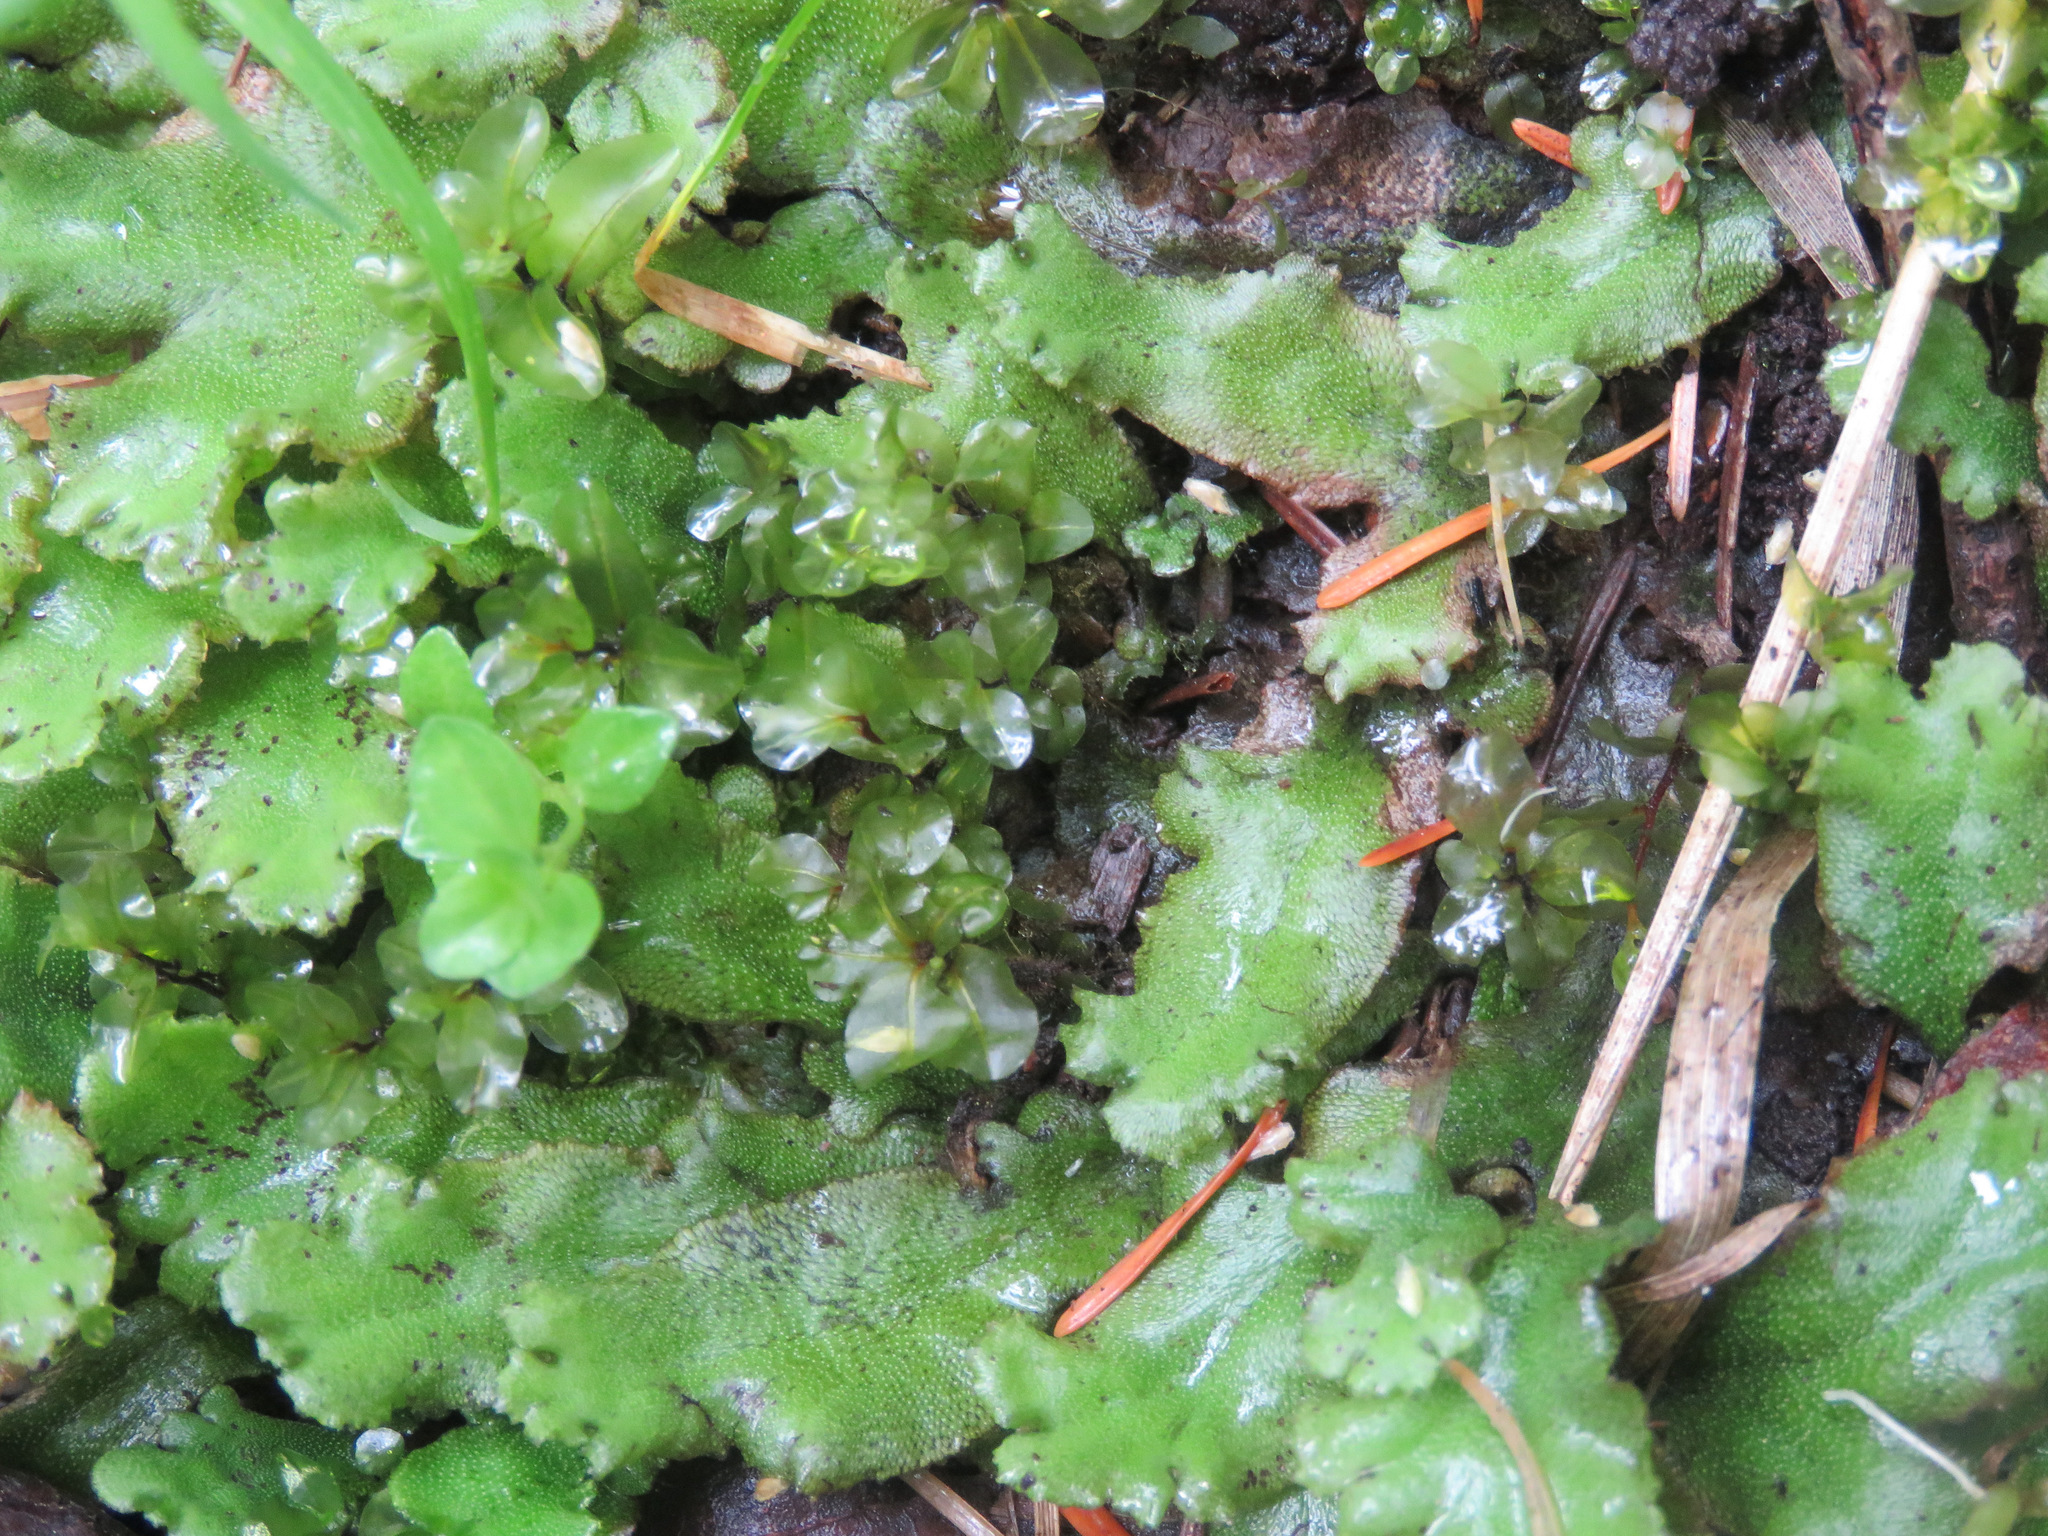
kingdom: Plantae
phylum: Marchantiophyta
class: Marchantiopsida
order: Marchantiales
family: Marchantiaceae
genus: Marchantia
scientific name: Marchantia polymorpha
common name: Common liverwort
